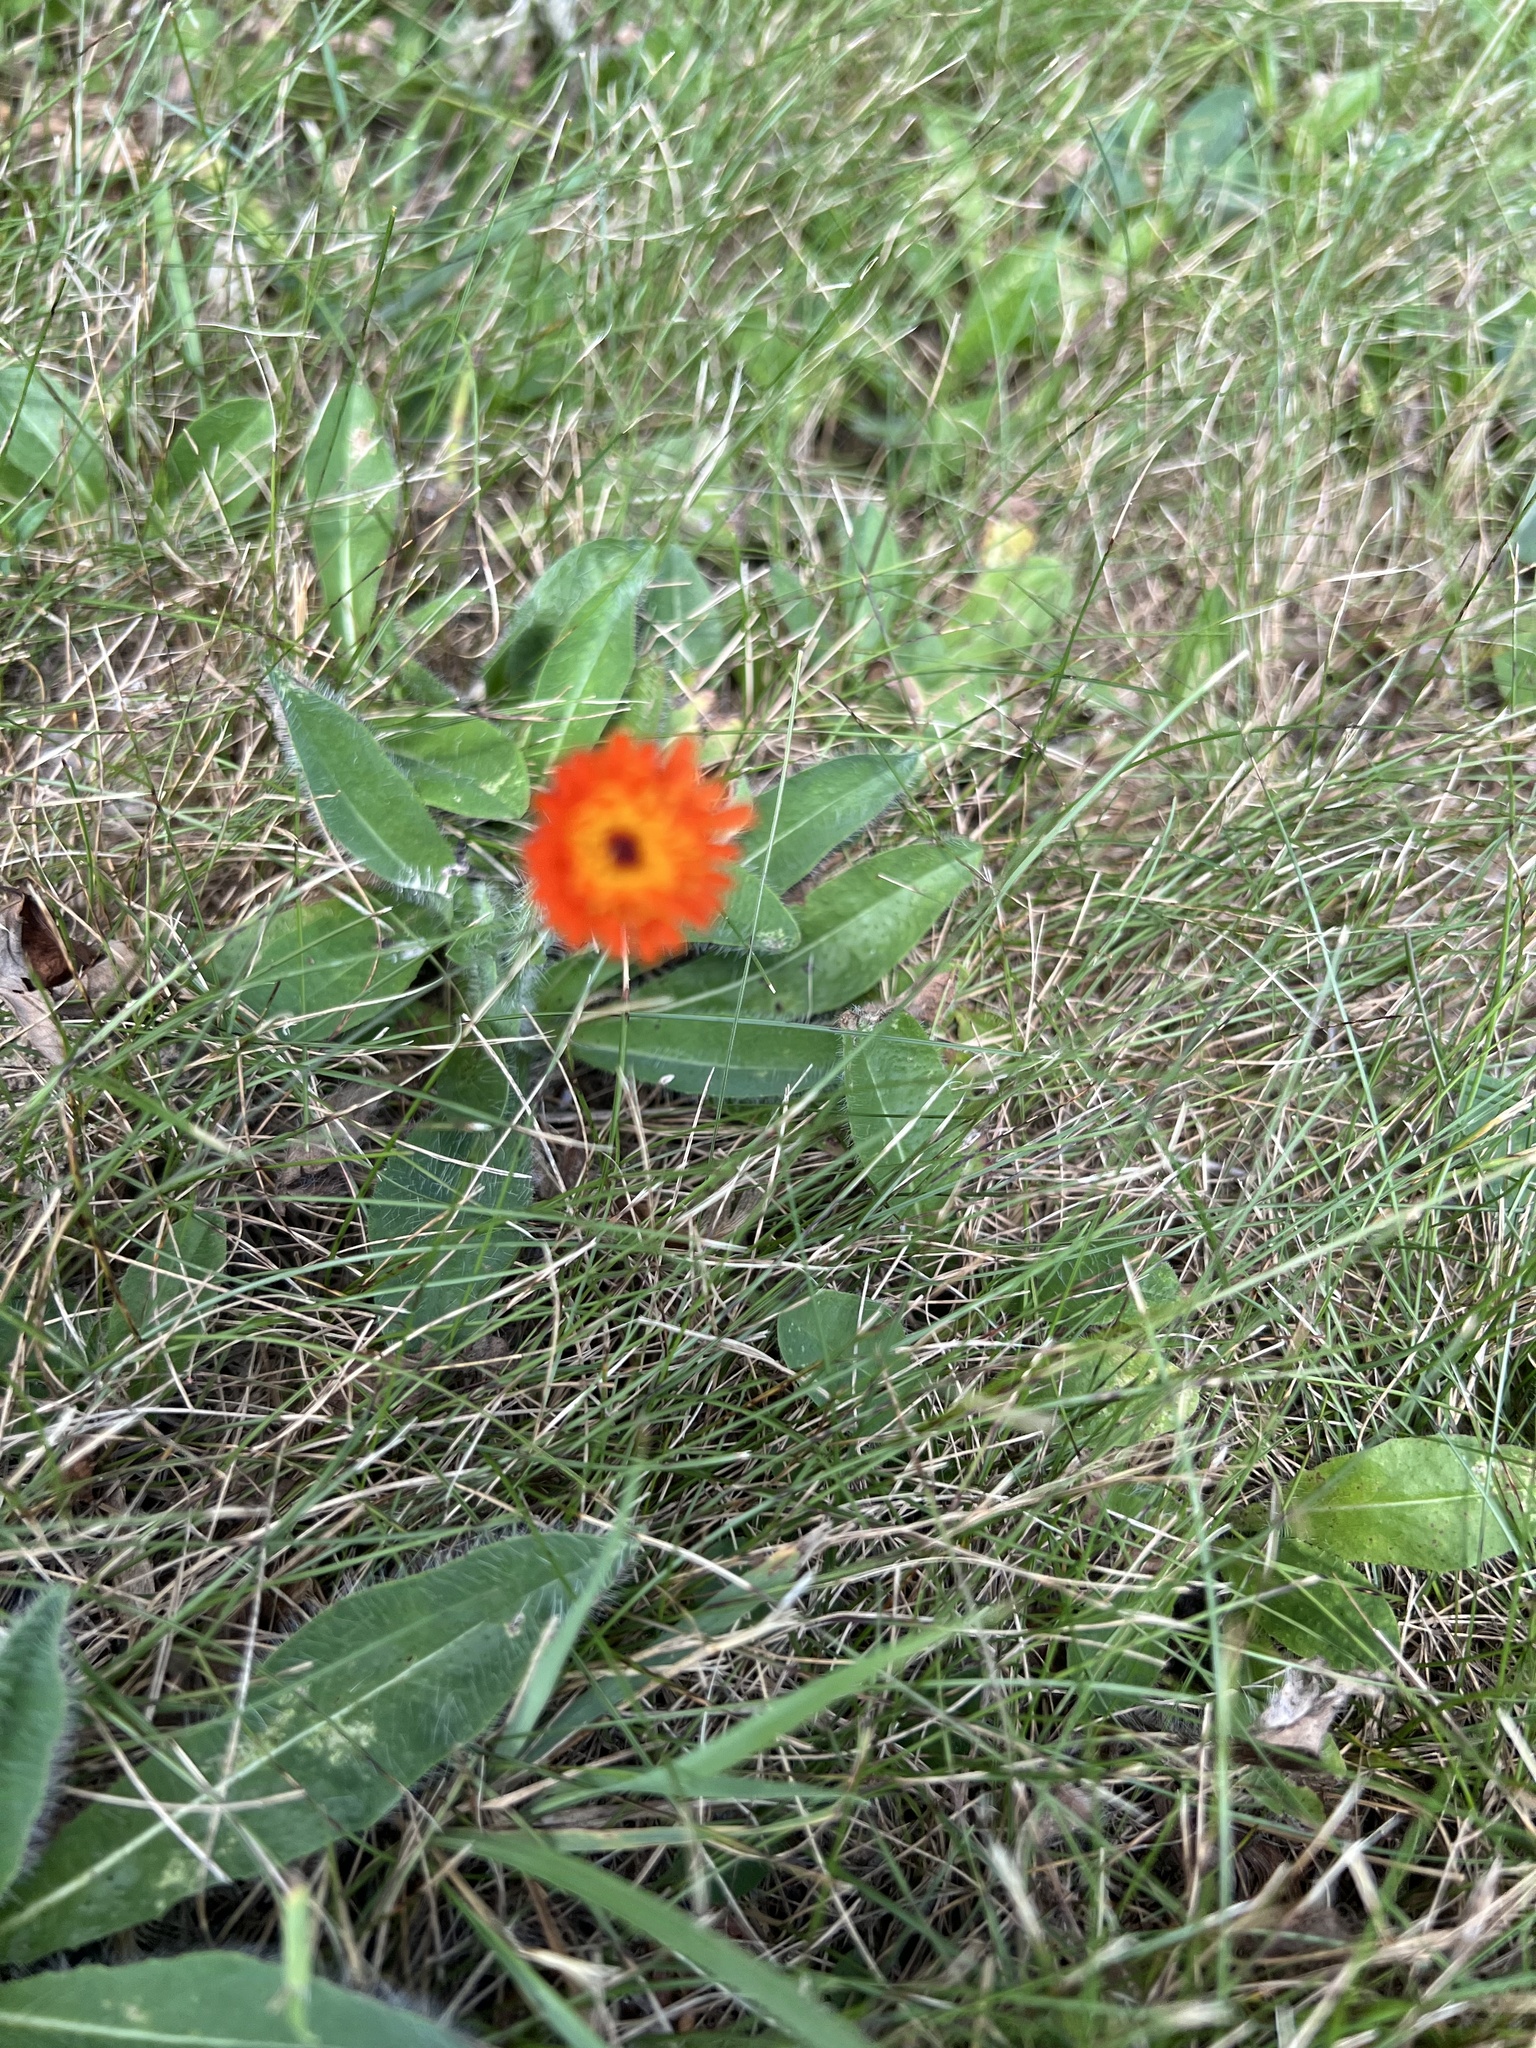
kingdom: Plantae
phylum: Tracheophyta
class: Magnoliopsida
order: Asterales
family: Asteraceae
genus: Pilosella
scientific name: Pilosella aurantiaca
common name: Fox-and-cubs
